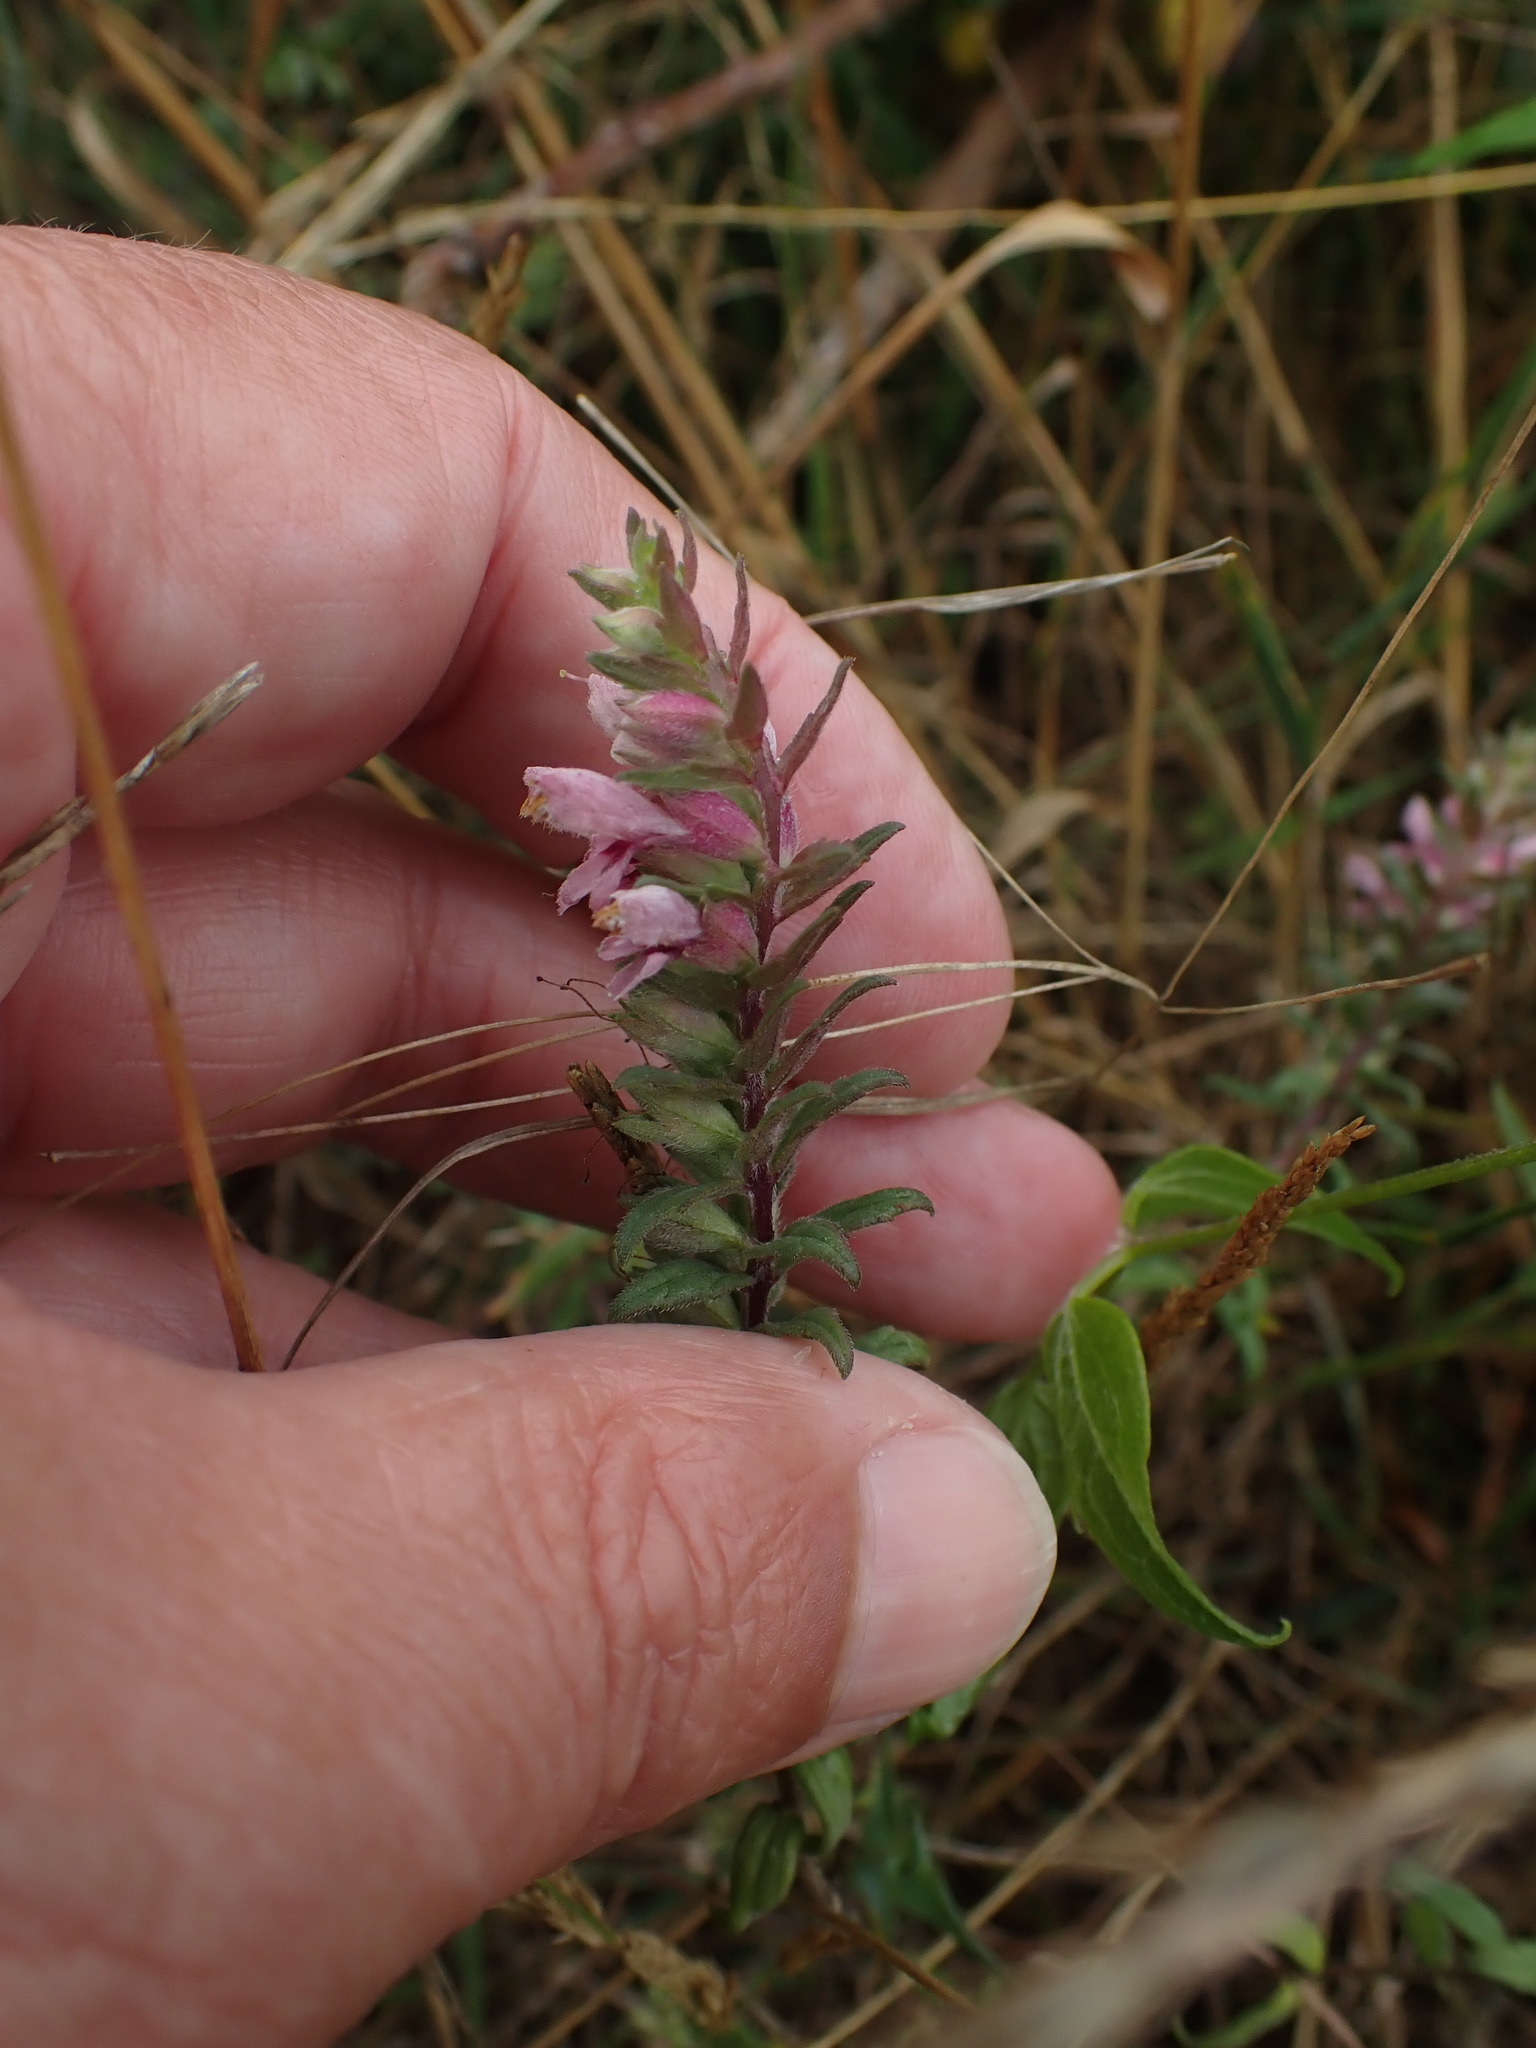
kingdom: Plantae
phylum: Tracheophyta
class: Magnoliopsida
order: Lamiales
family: Orobanchaceae
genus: Odontites
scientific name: Odontites vulgaris
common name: Broomrape
